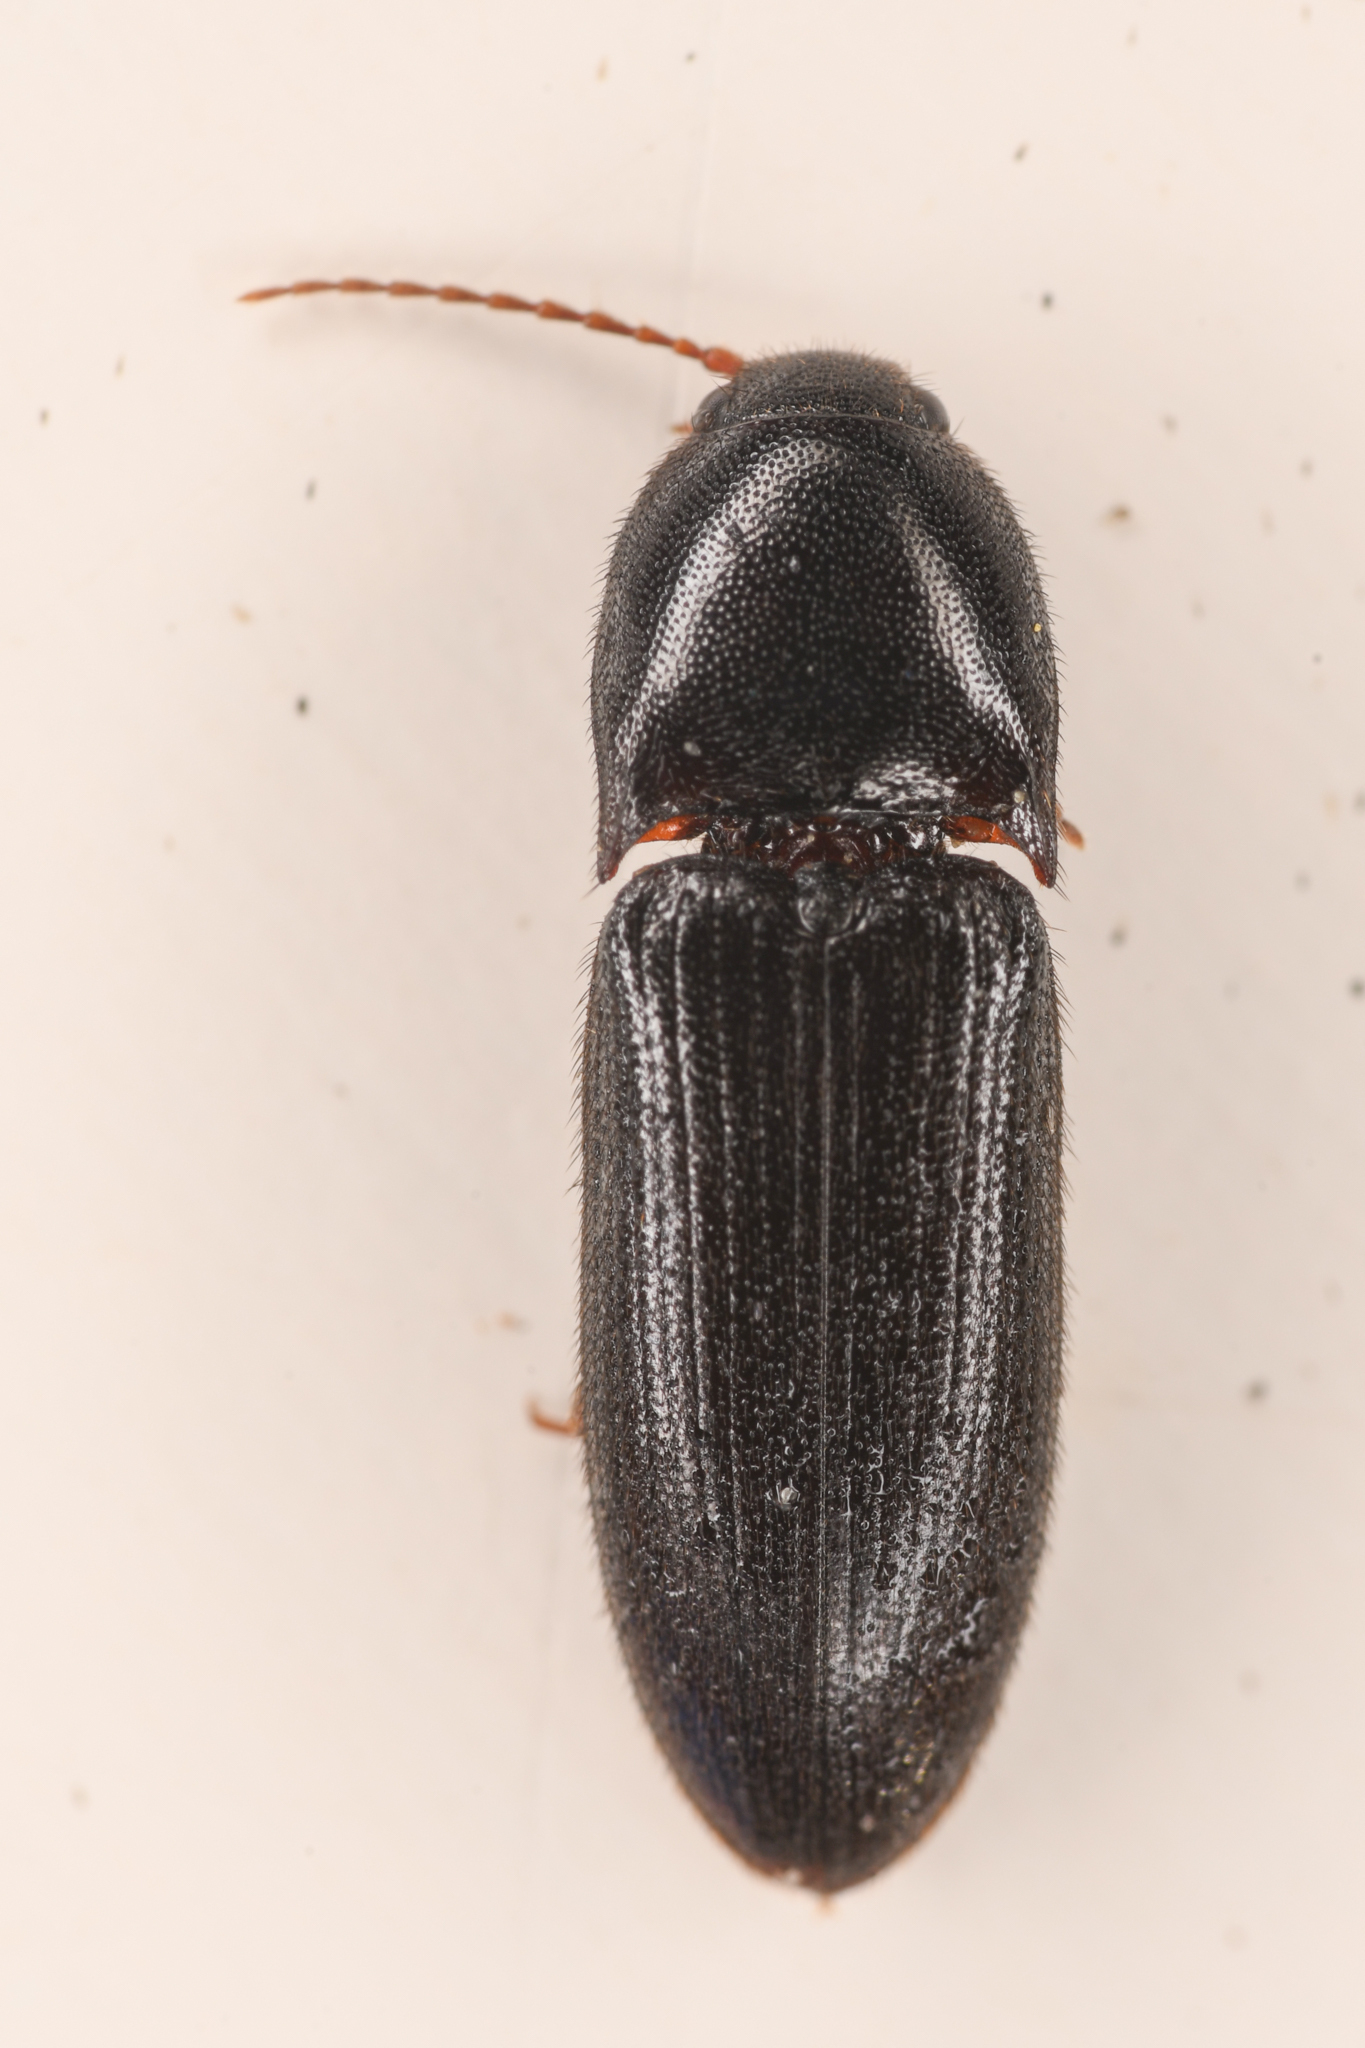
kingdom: Animalia
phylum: Arthropoda
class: Insecta
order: Coleoptera
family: Elateridae
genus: Ampedus
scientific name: Ampedus rhodopus
